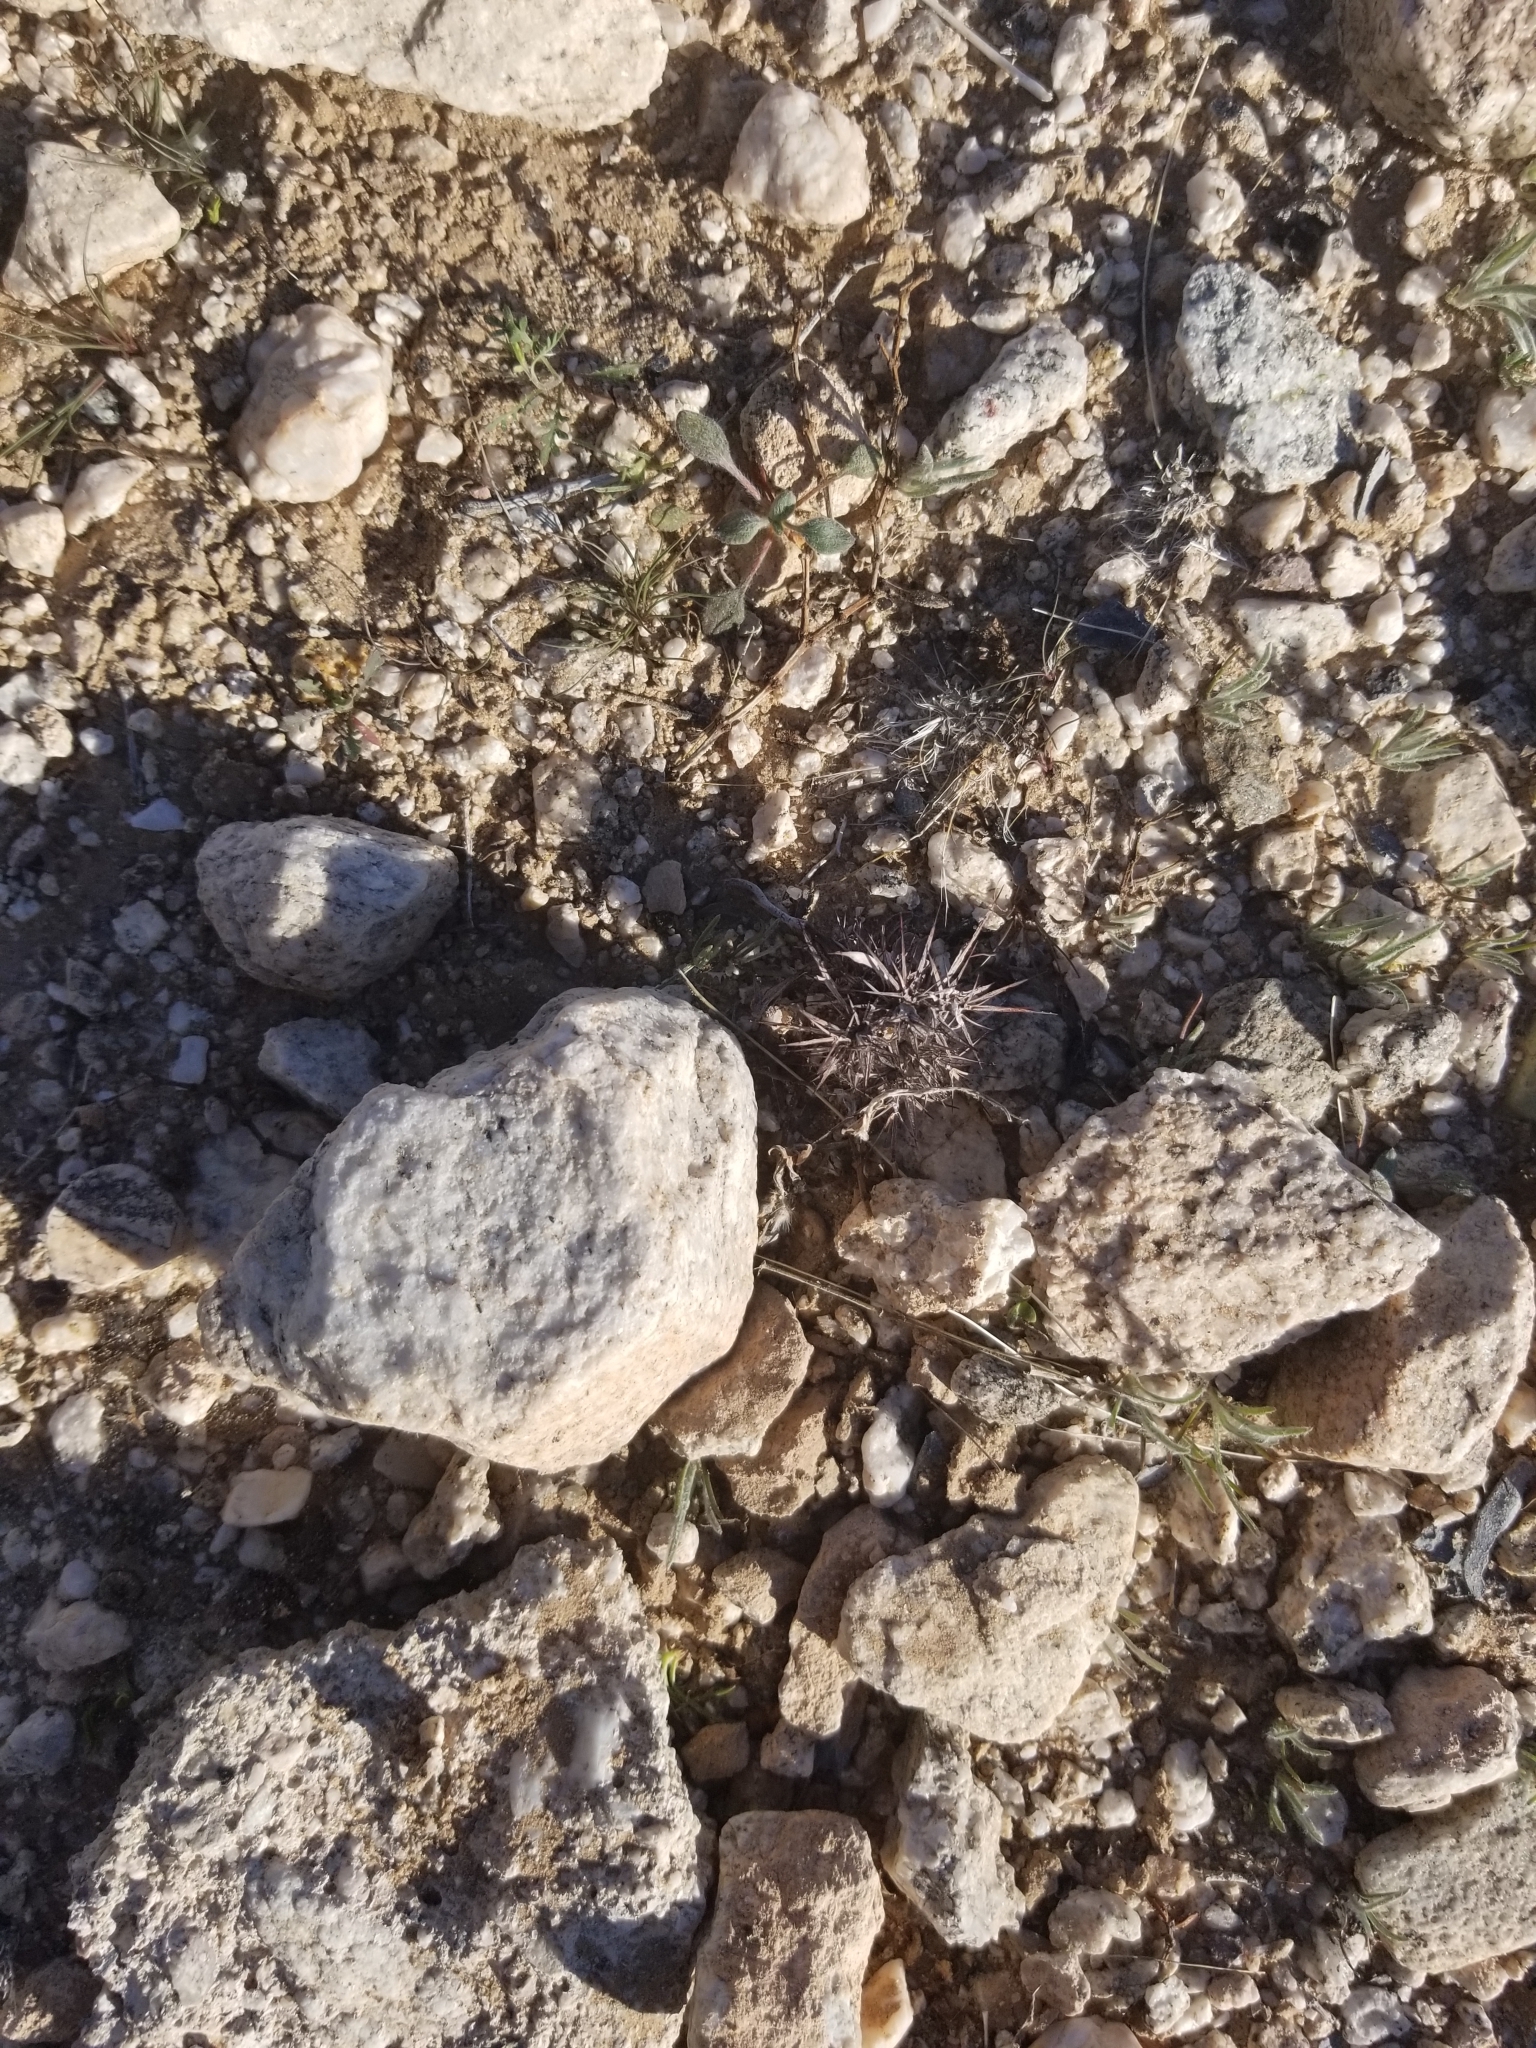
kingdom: Plantae
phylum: Tracheophyta
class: Magnoliopsida
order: Caryophyllales
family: Polygonaceae
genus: Chorizanthe
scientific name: Chorizanthe rigida
